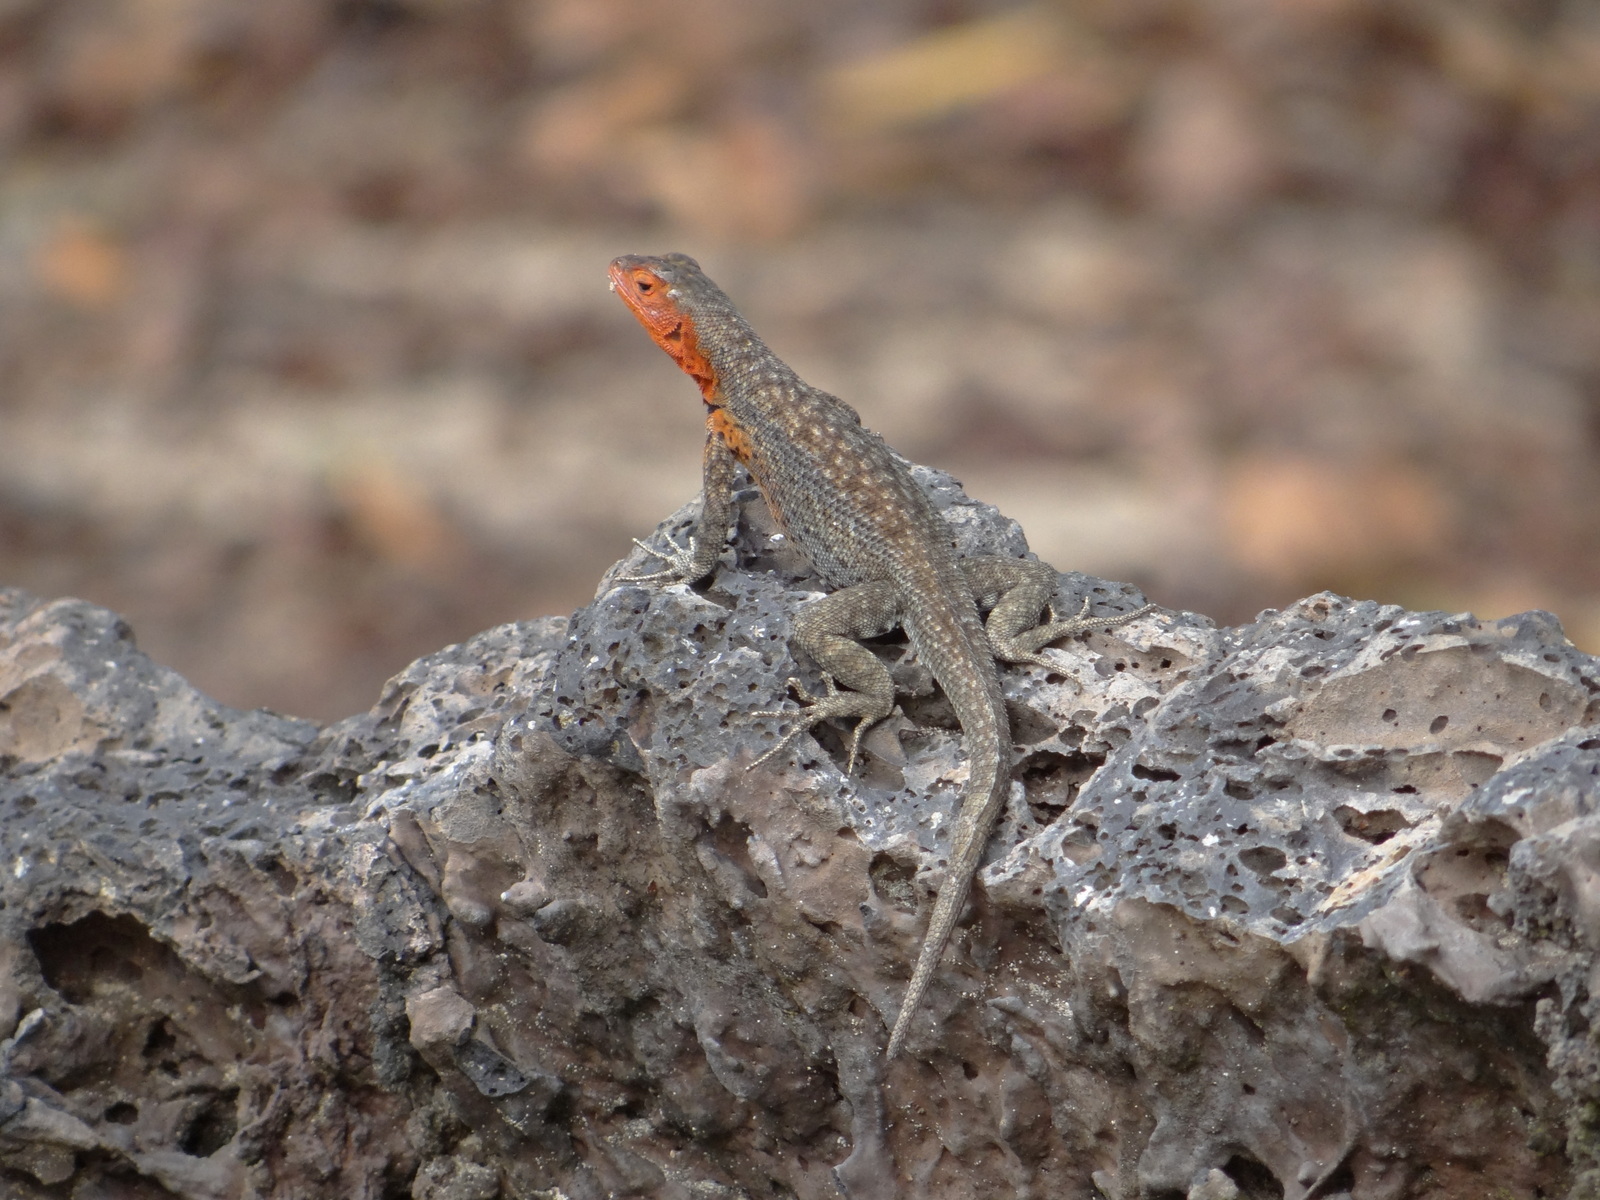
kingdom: Animalia
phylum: Chordata
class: Squamata
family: Tropiduridae
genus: Microlophus
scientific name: Microlophus albemarlensis
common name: Galapagos lava lizard
